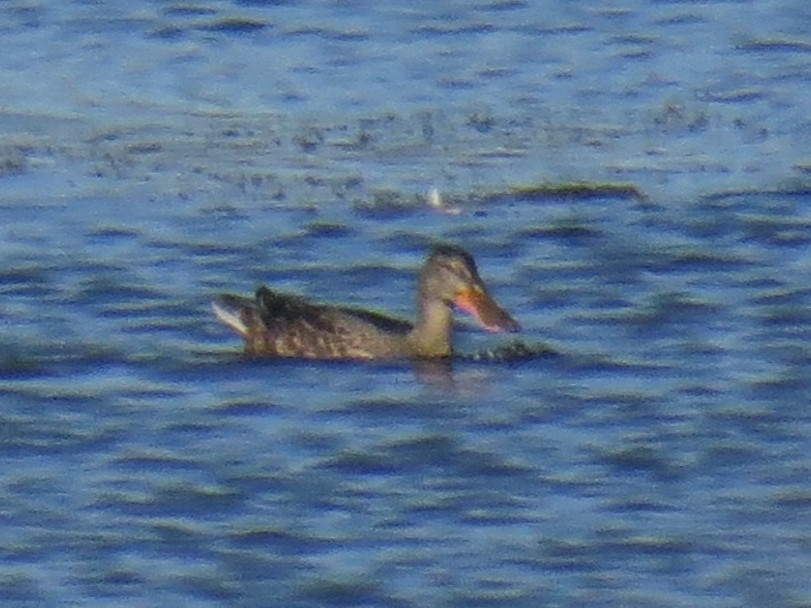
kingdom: Animalia
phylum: Chordata
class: Aves
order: Anseriformes
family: Anatidae
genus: Spatula
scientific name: Spatula clypeata
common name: Northern shoveler
